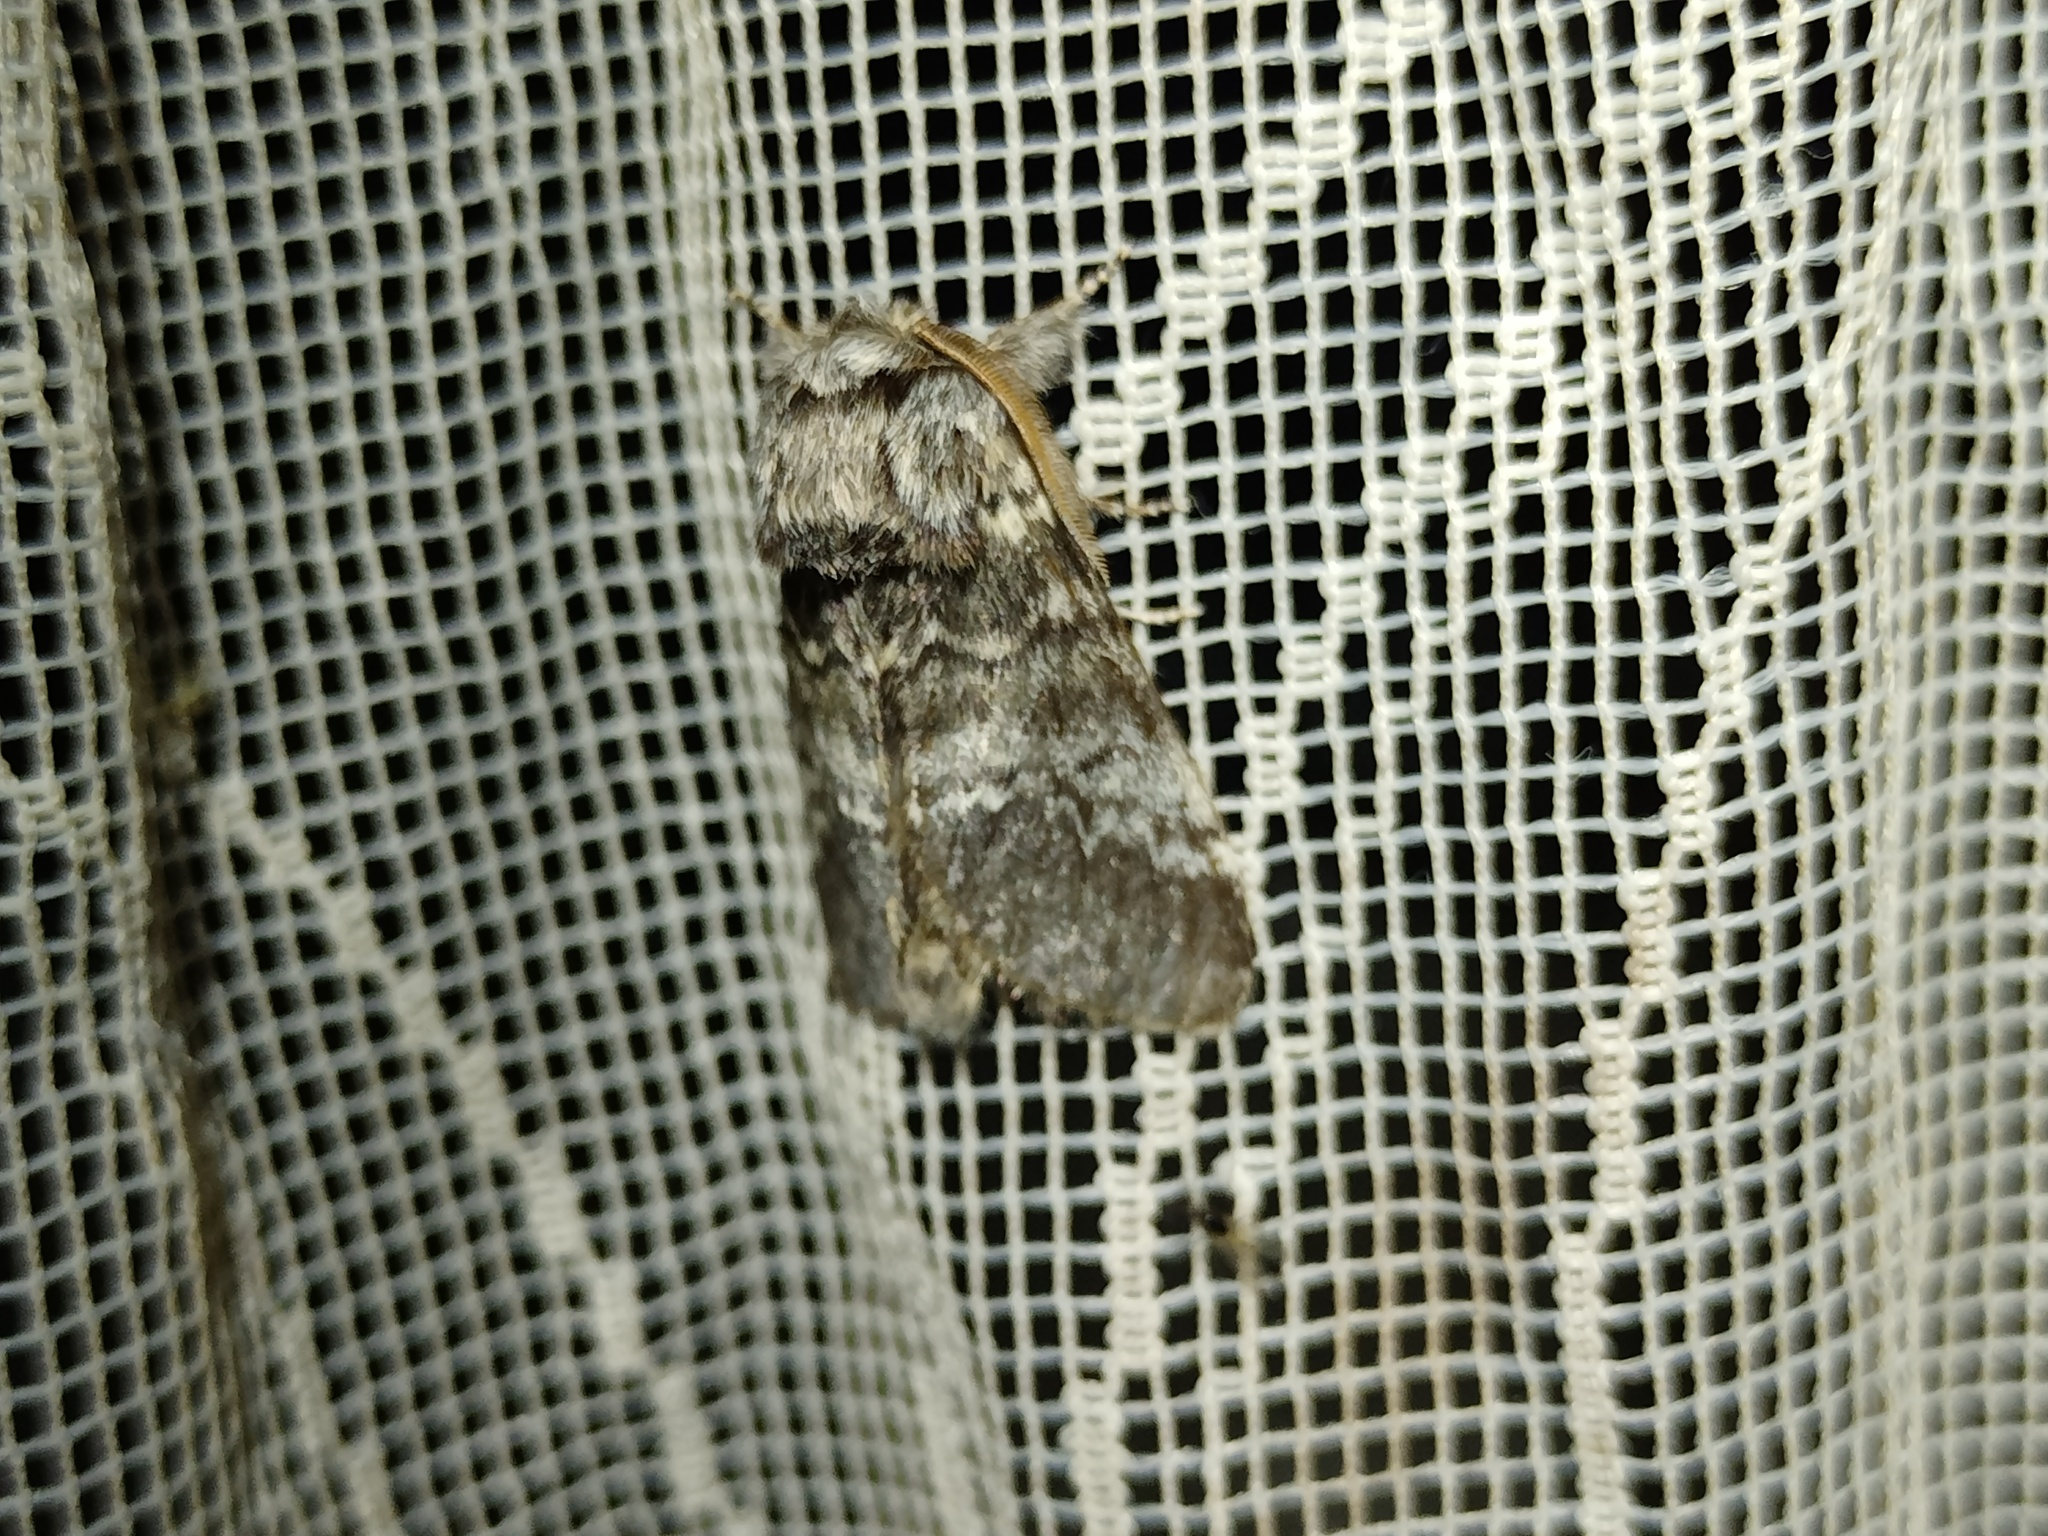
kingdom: Animalia
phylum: Arthropoda
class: Insecta
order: Lepidoptera
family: Notodontidae
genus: Drymonia
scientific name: Drymonia ruficornis
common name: Lunar marbled brown
